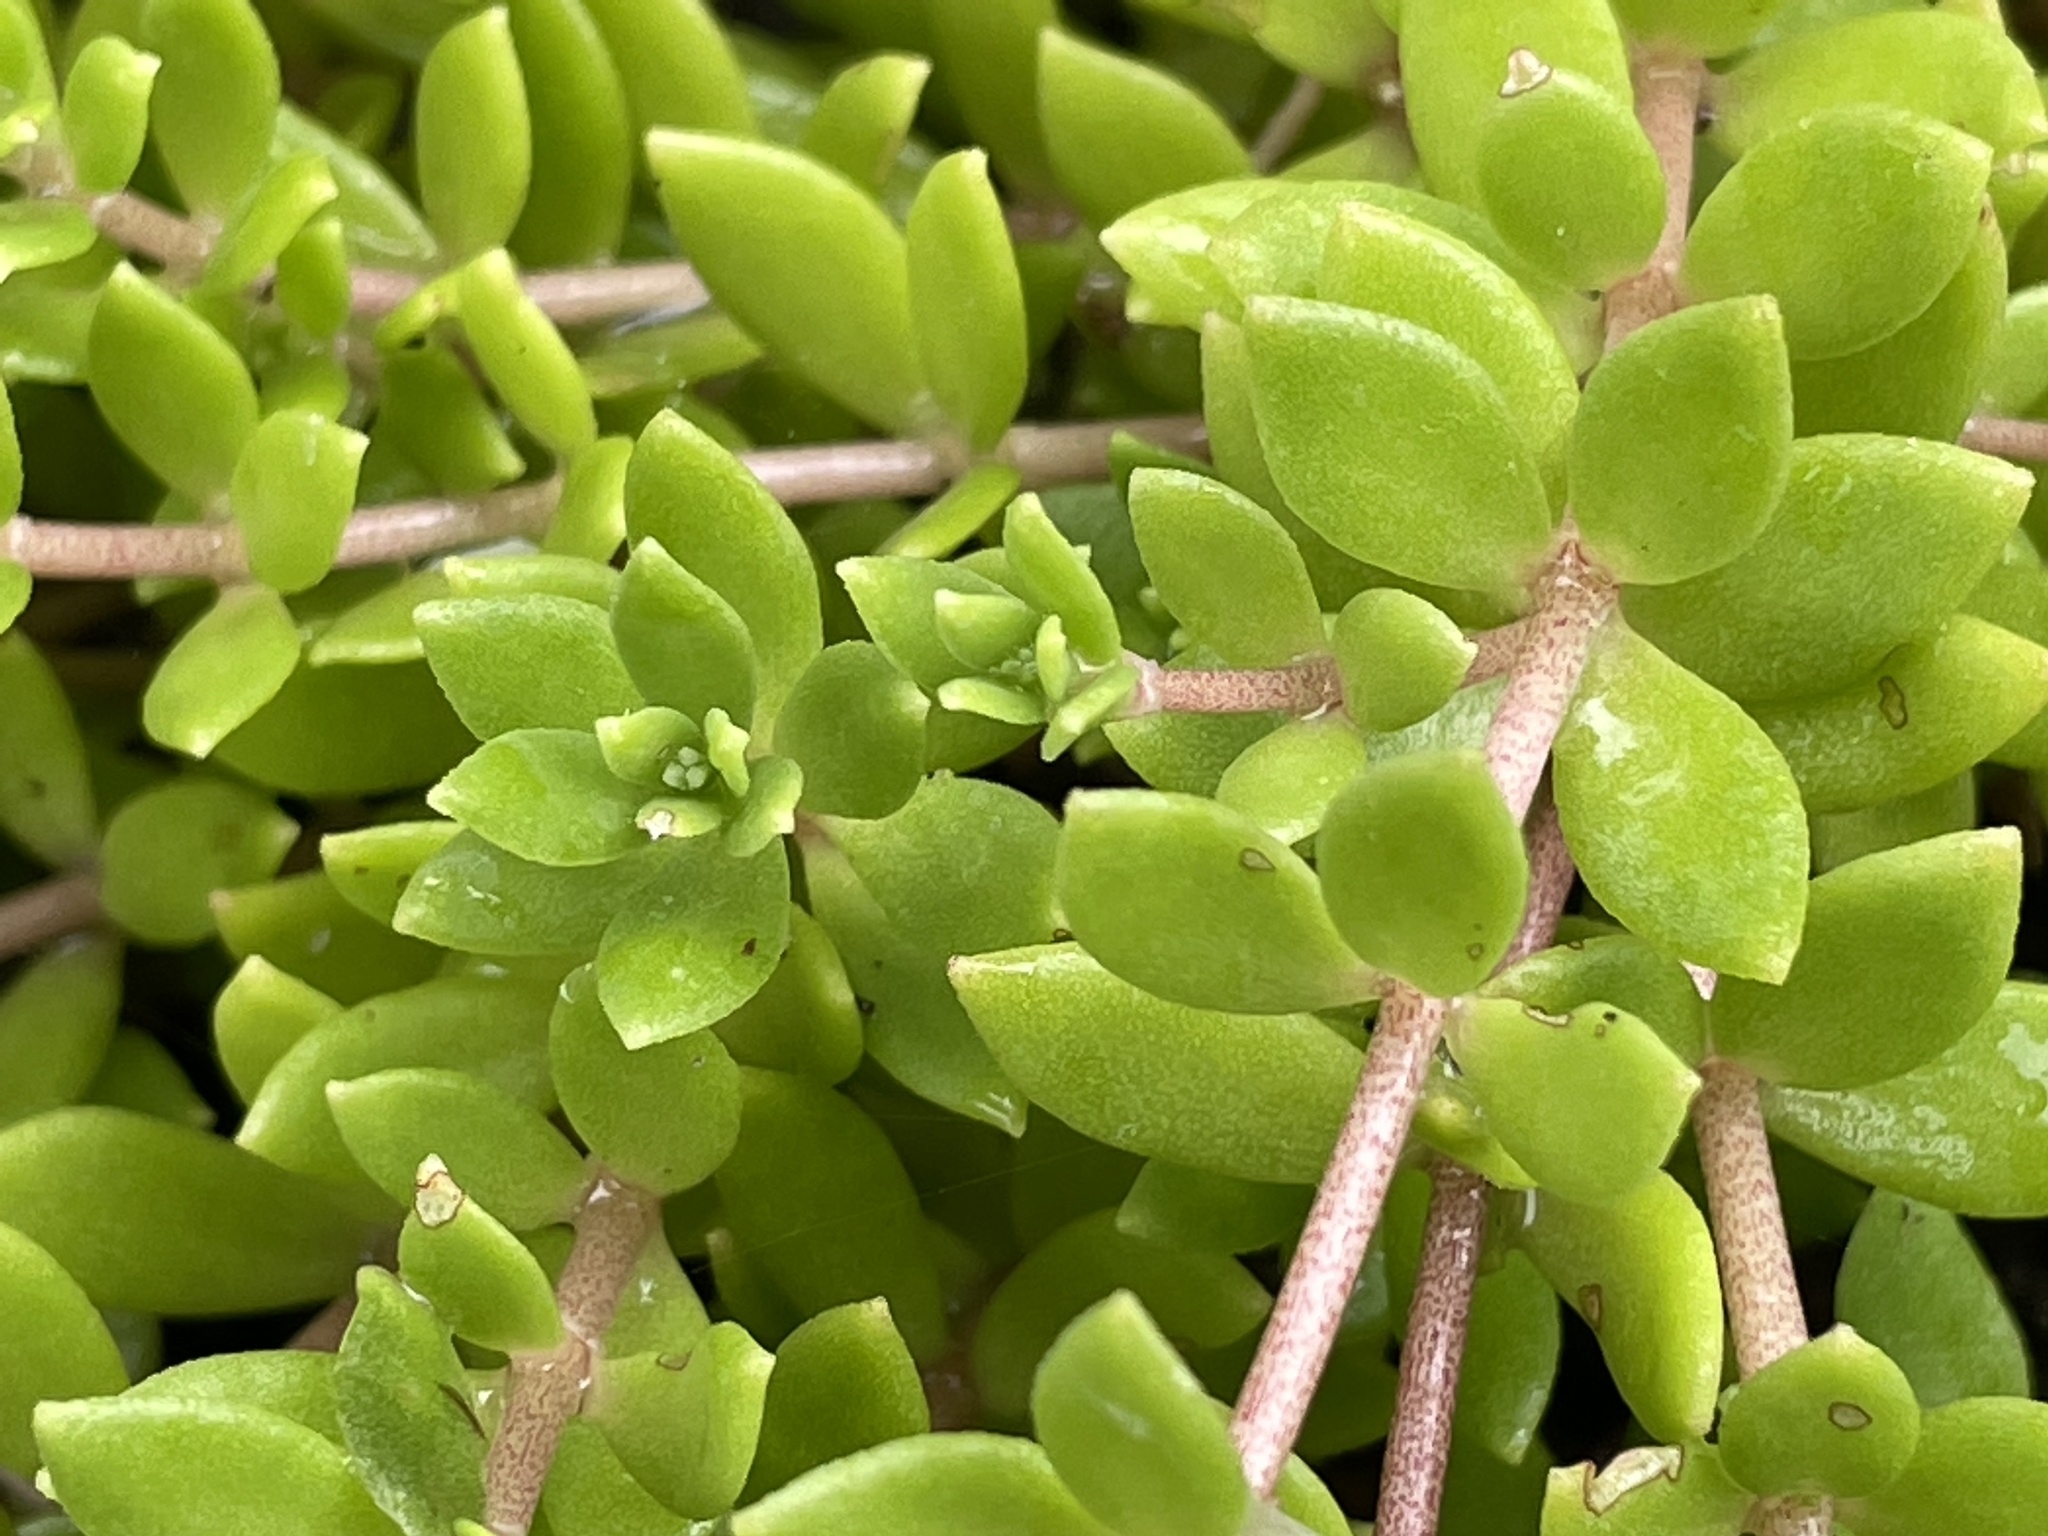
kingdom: Plantae
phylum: Tracheophyta
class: Magnoliopsida
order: Saxifragales
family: Crassulaceae
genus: Sedum
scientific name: Sedum sarmentosum
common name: Stringy stonecrop
